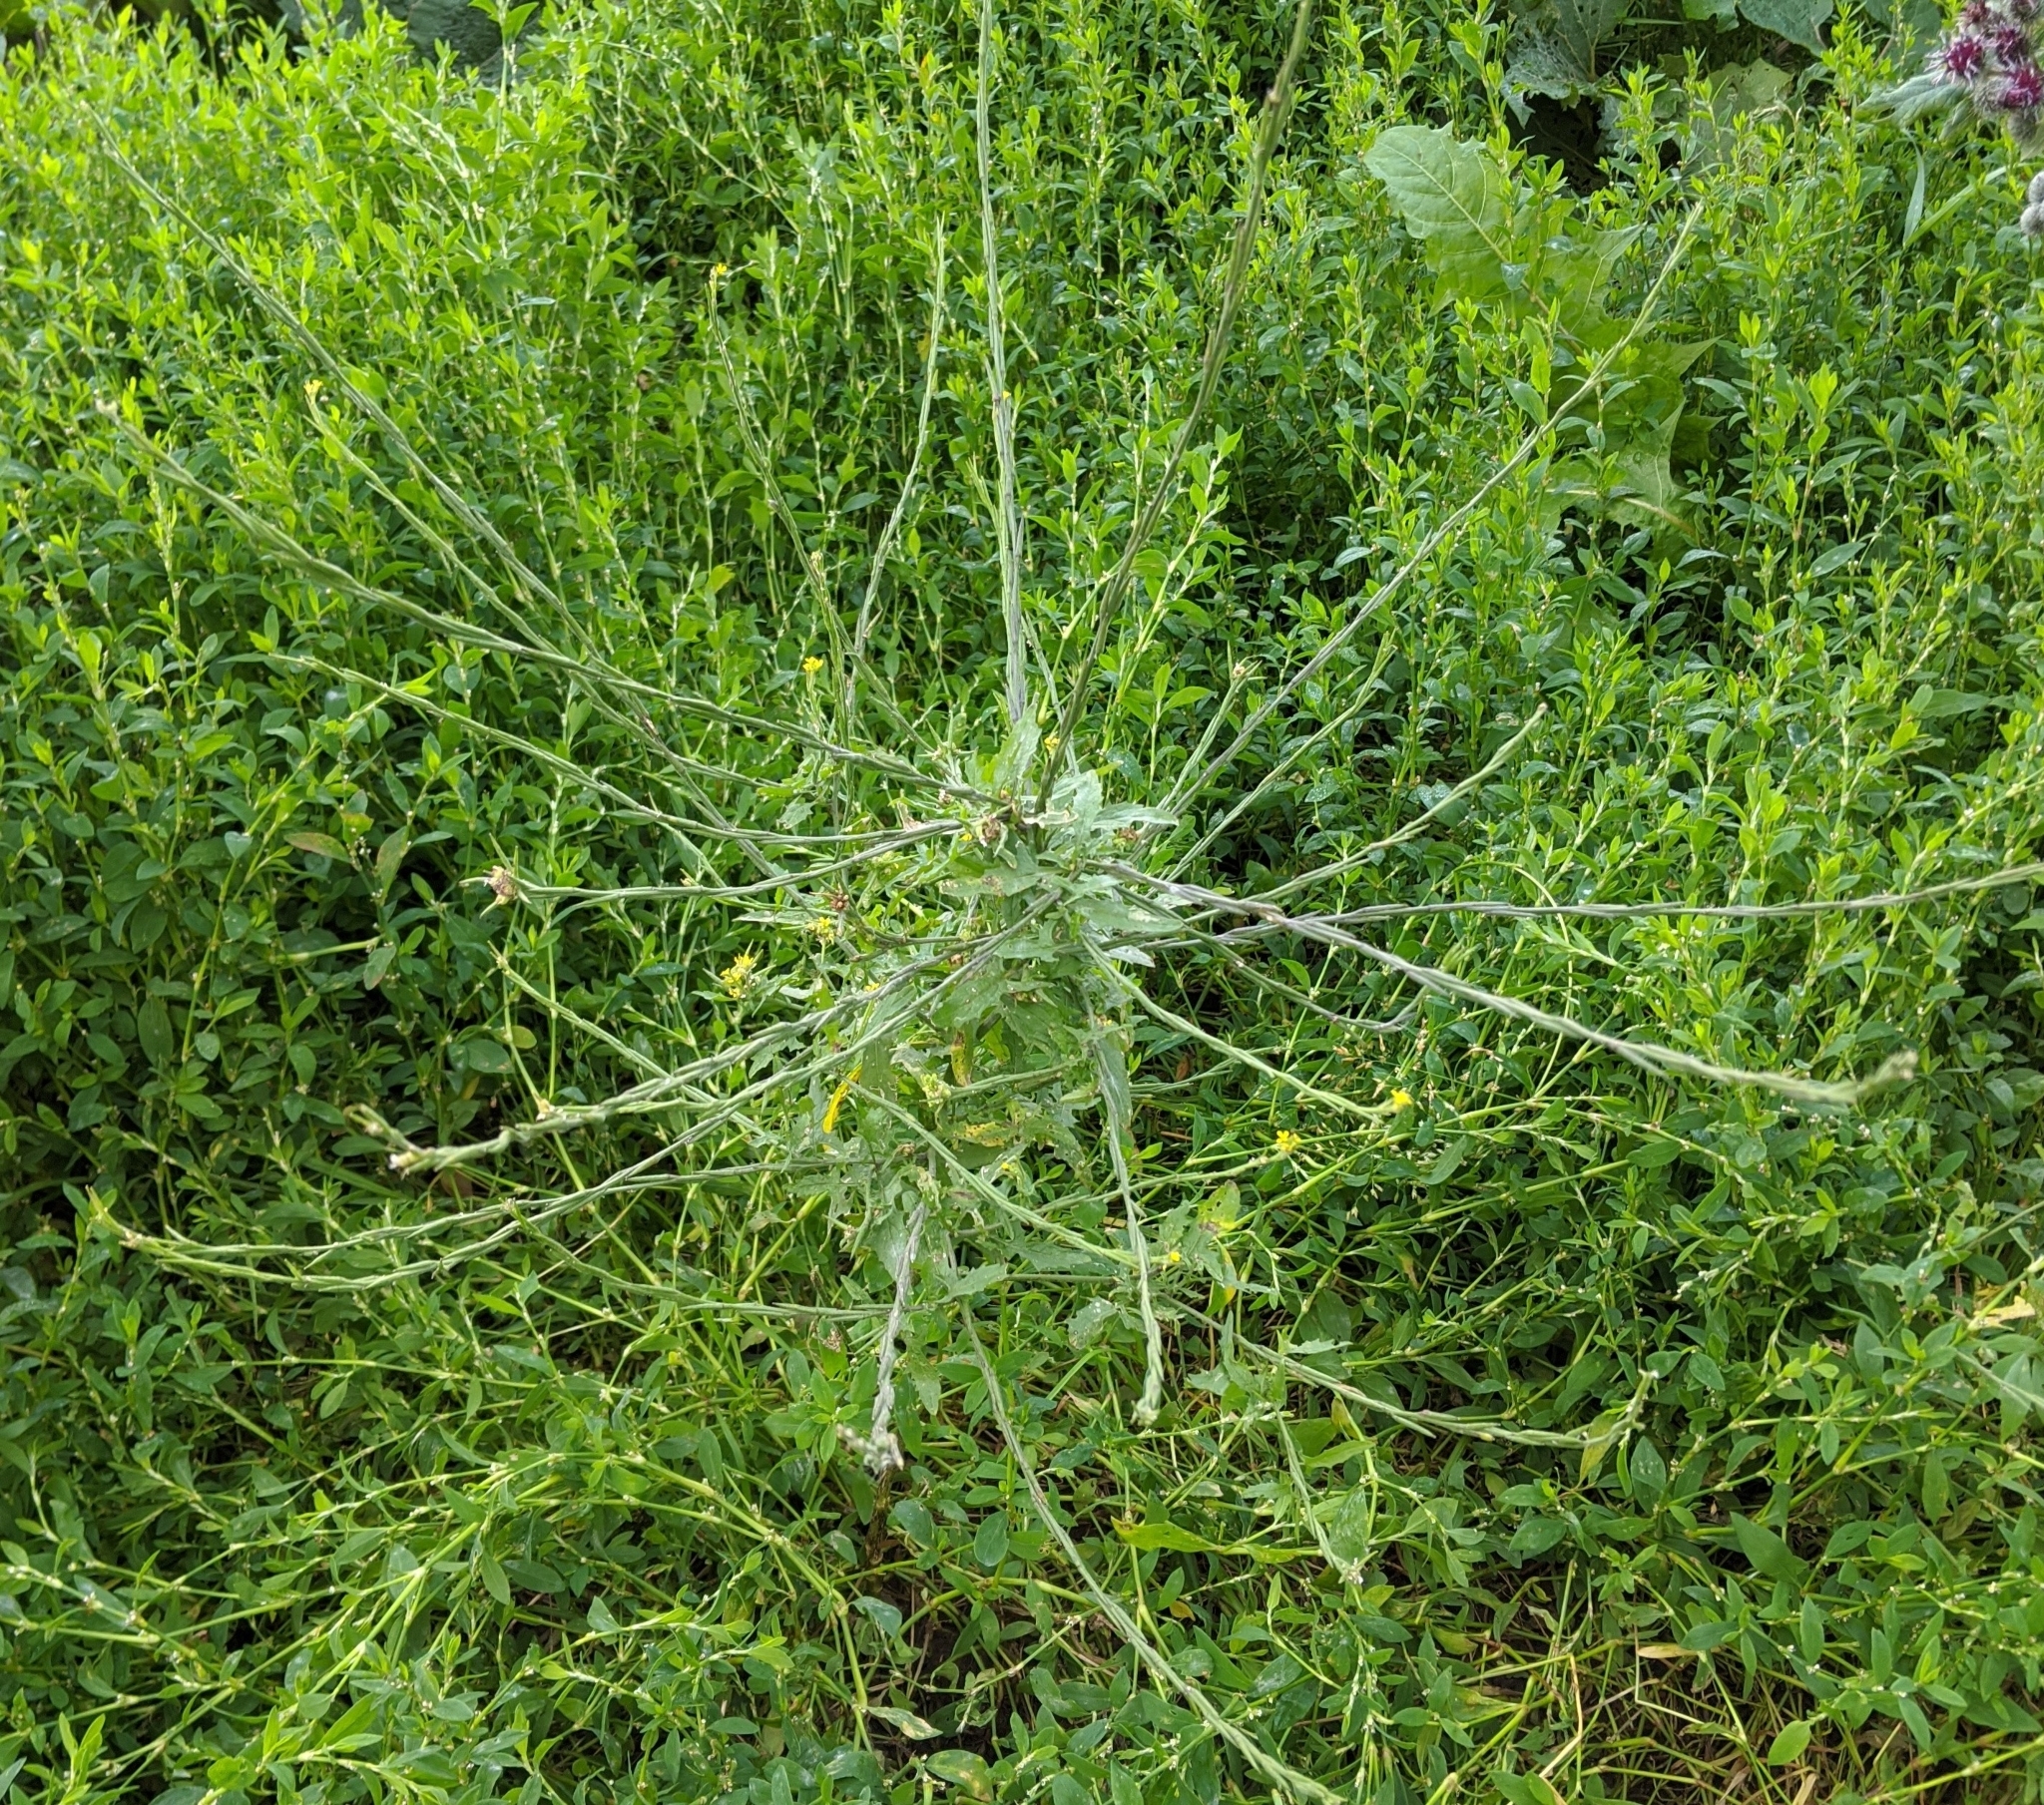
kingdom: Plantae
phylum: Tracheophyta
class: Magnoliopsida
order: Brassicales
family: Brassicaceae
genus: Sisymbrium
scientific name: Sisymbrium officinale
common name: Hedge mustard
